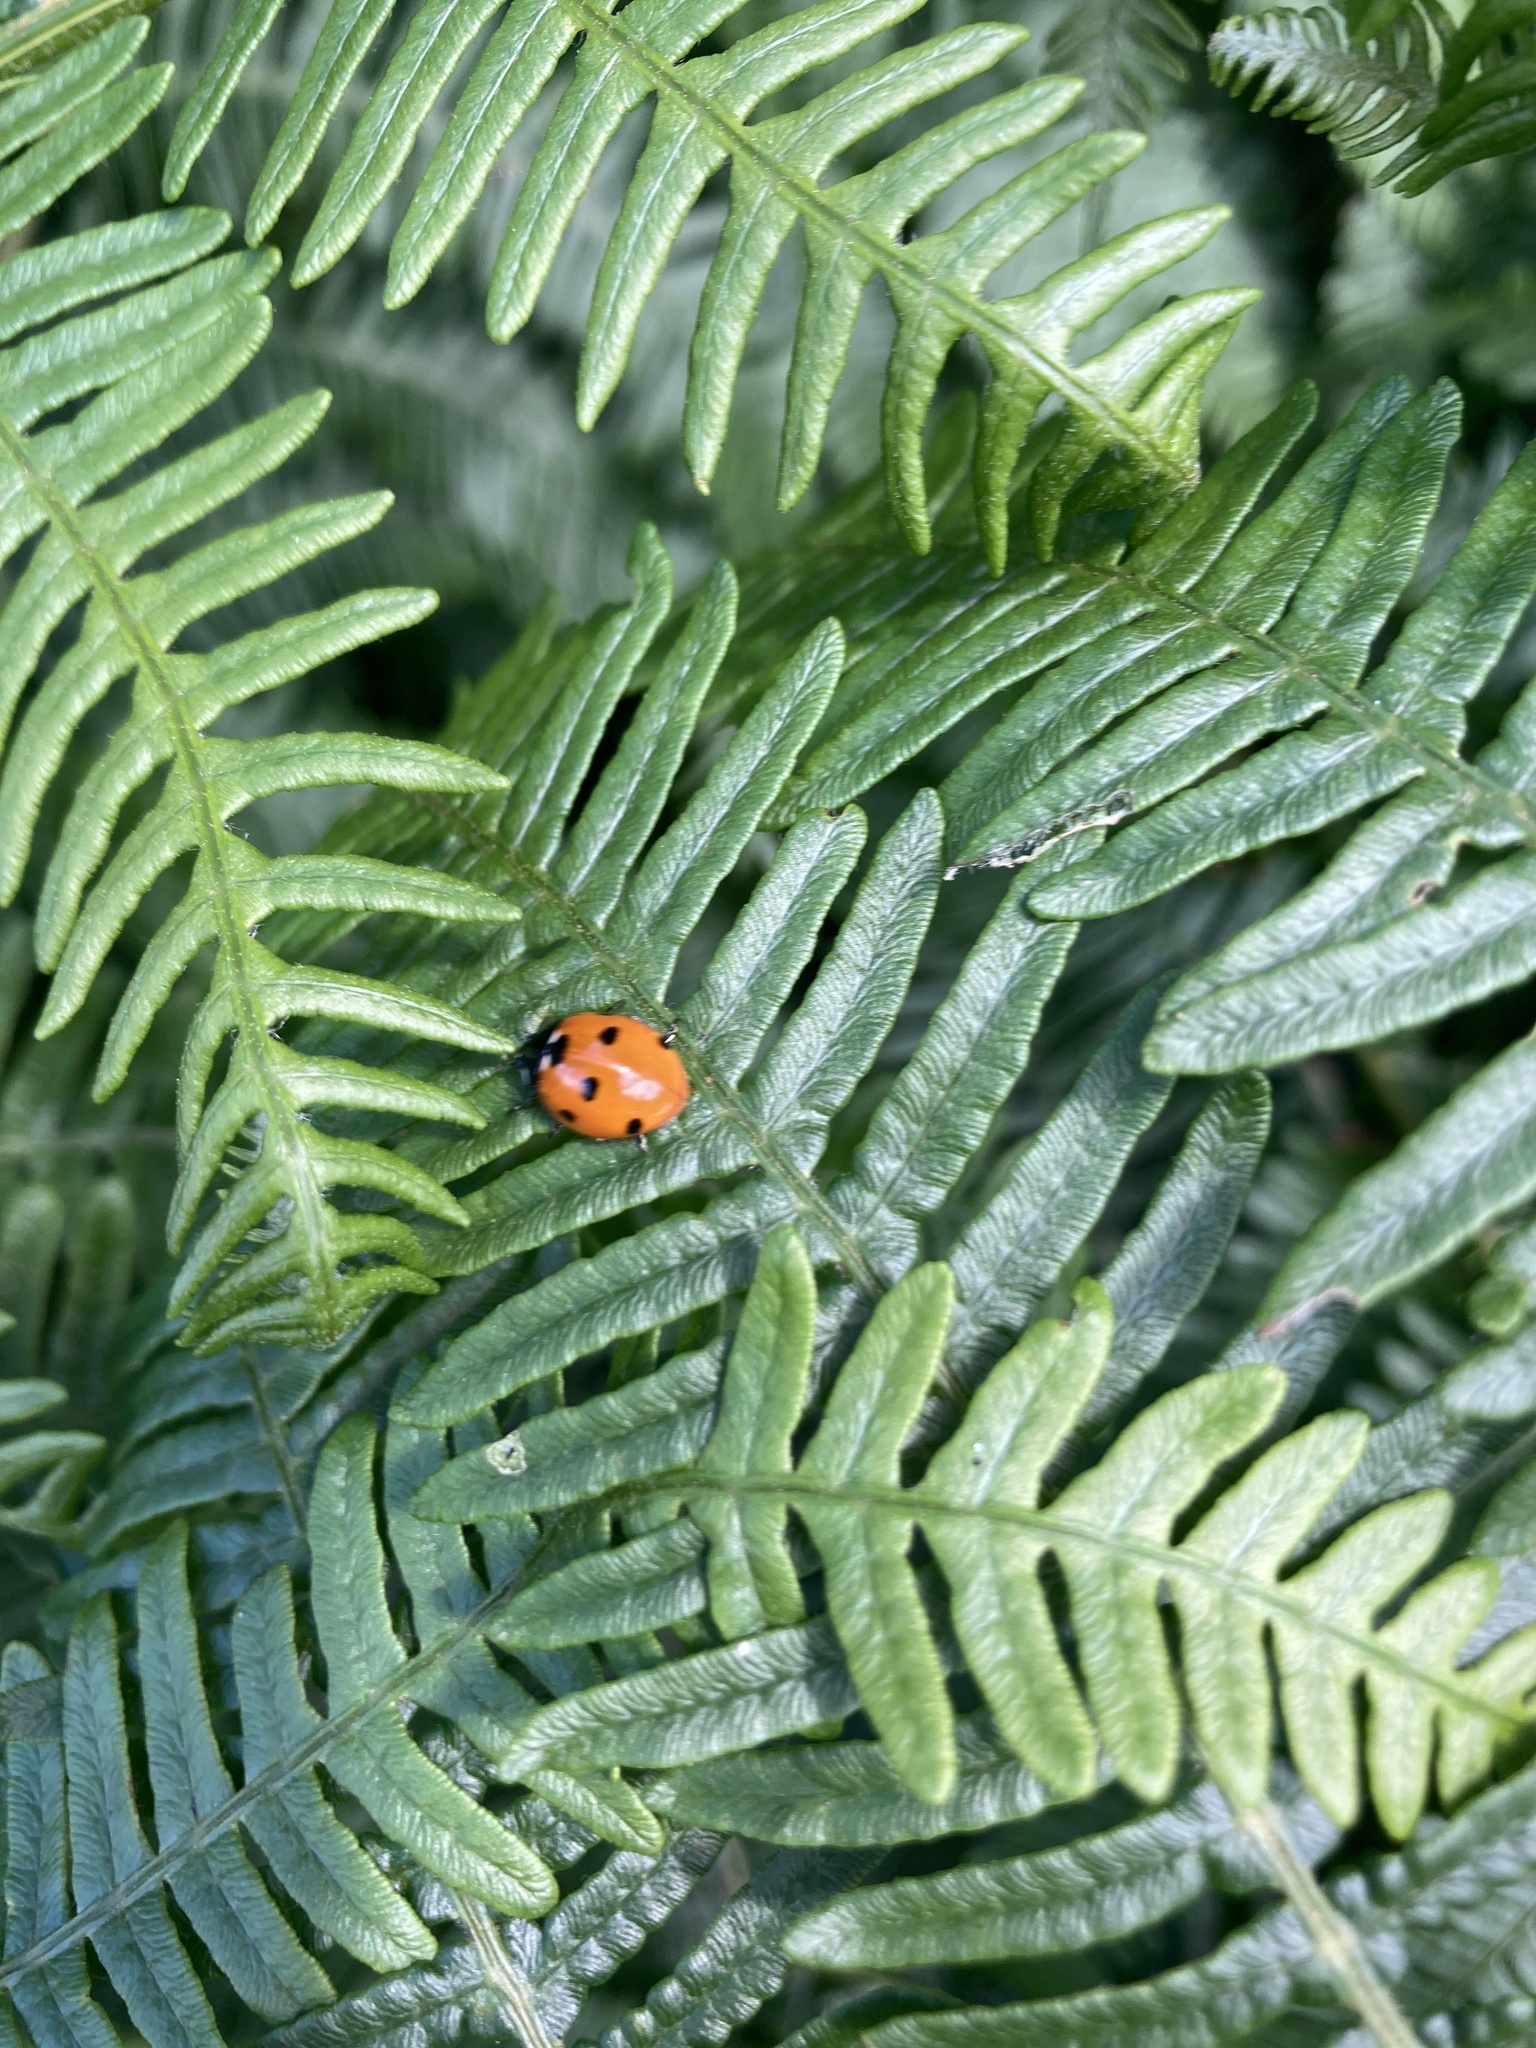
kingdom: Animalia
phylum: Arthropoda
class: Insecta
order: Coleoptera
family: Coccinellidae
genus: Coccinella
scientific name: Coccinella septempunctata
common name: Sevenspotted lady beetle
